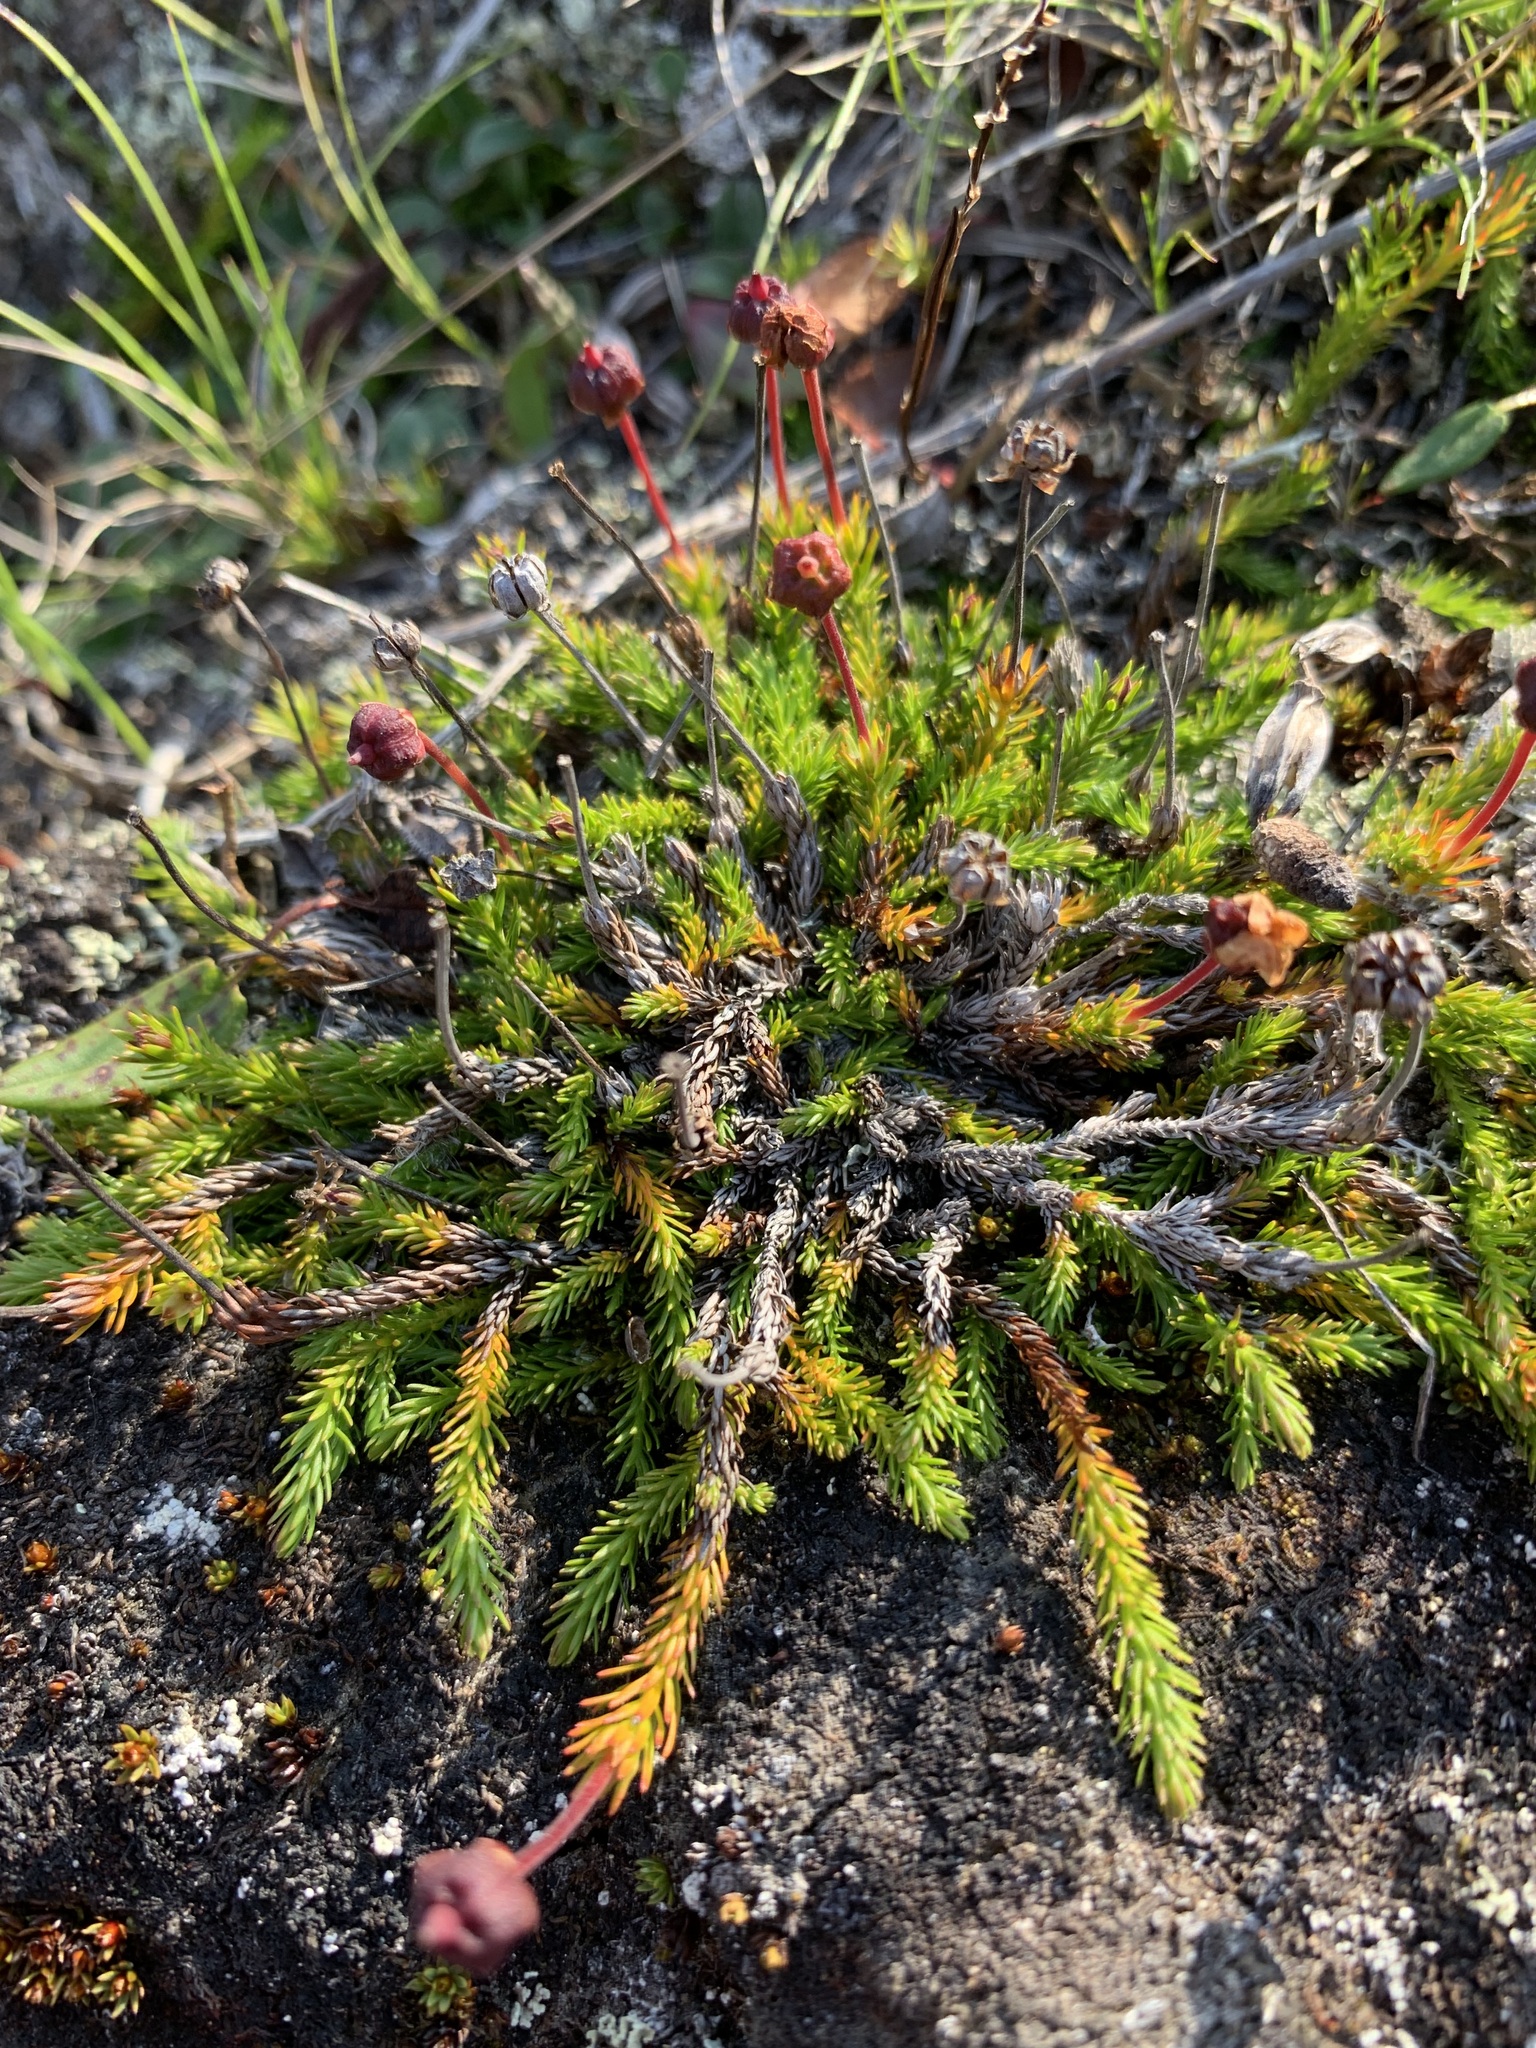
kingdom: Plantae
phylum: Tracheophyta
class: Magnoliopsida
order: Ericales
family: Ericaceae
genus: Harrimanella
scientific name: Harrimanella hypnoides
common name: Moss bell heather
